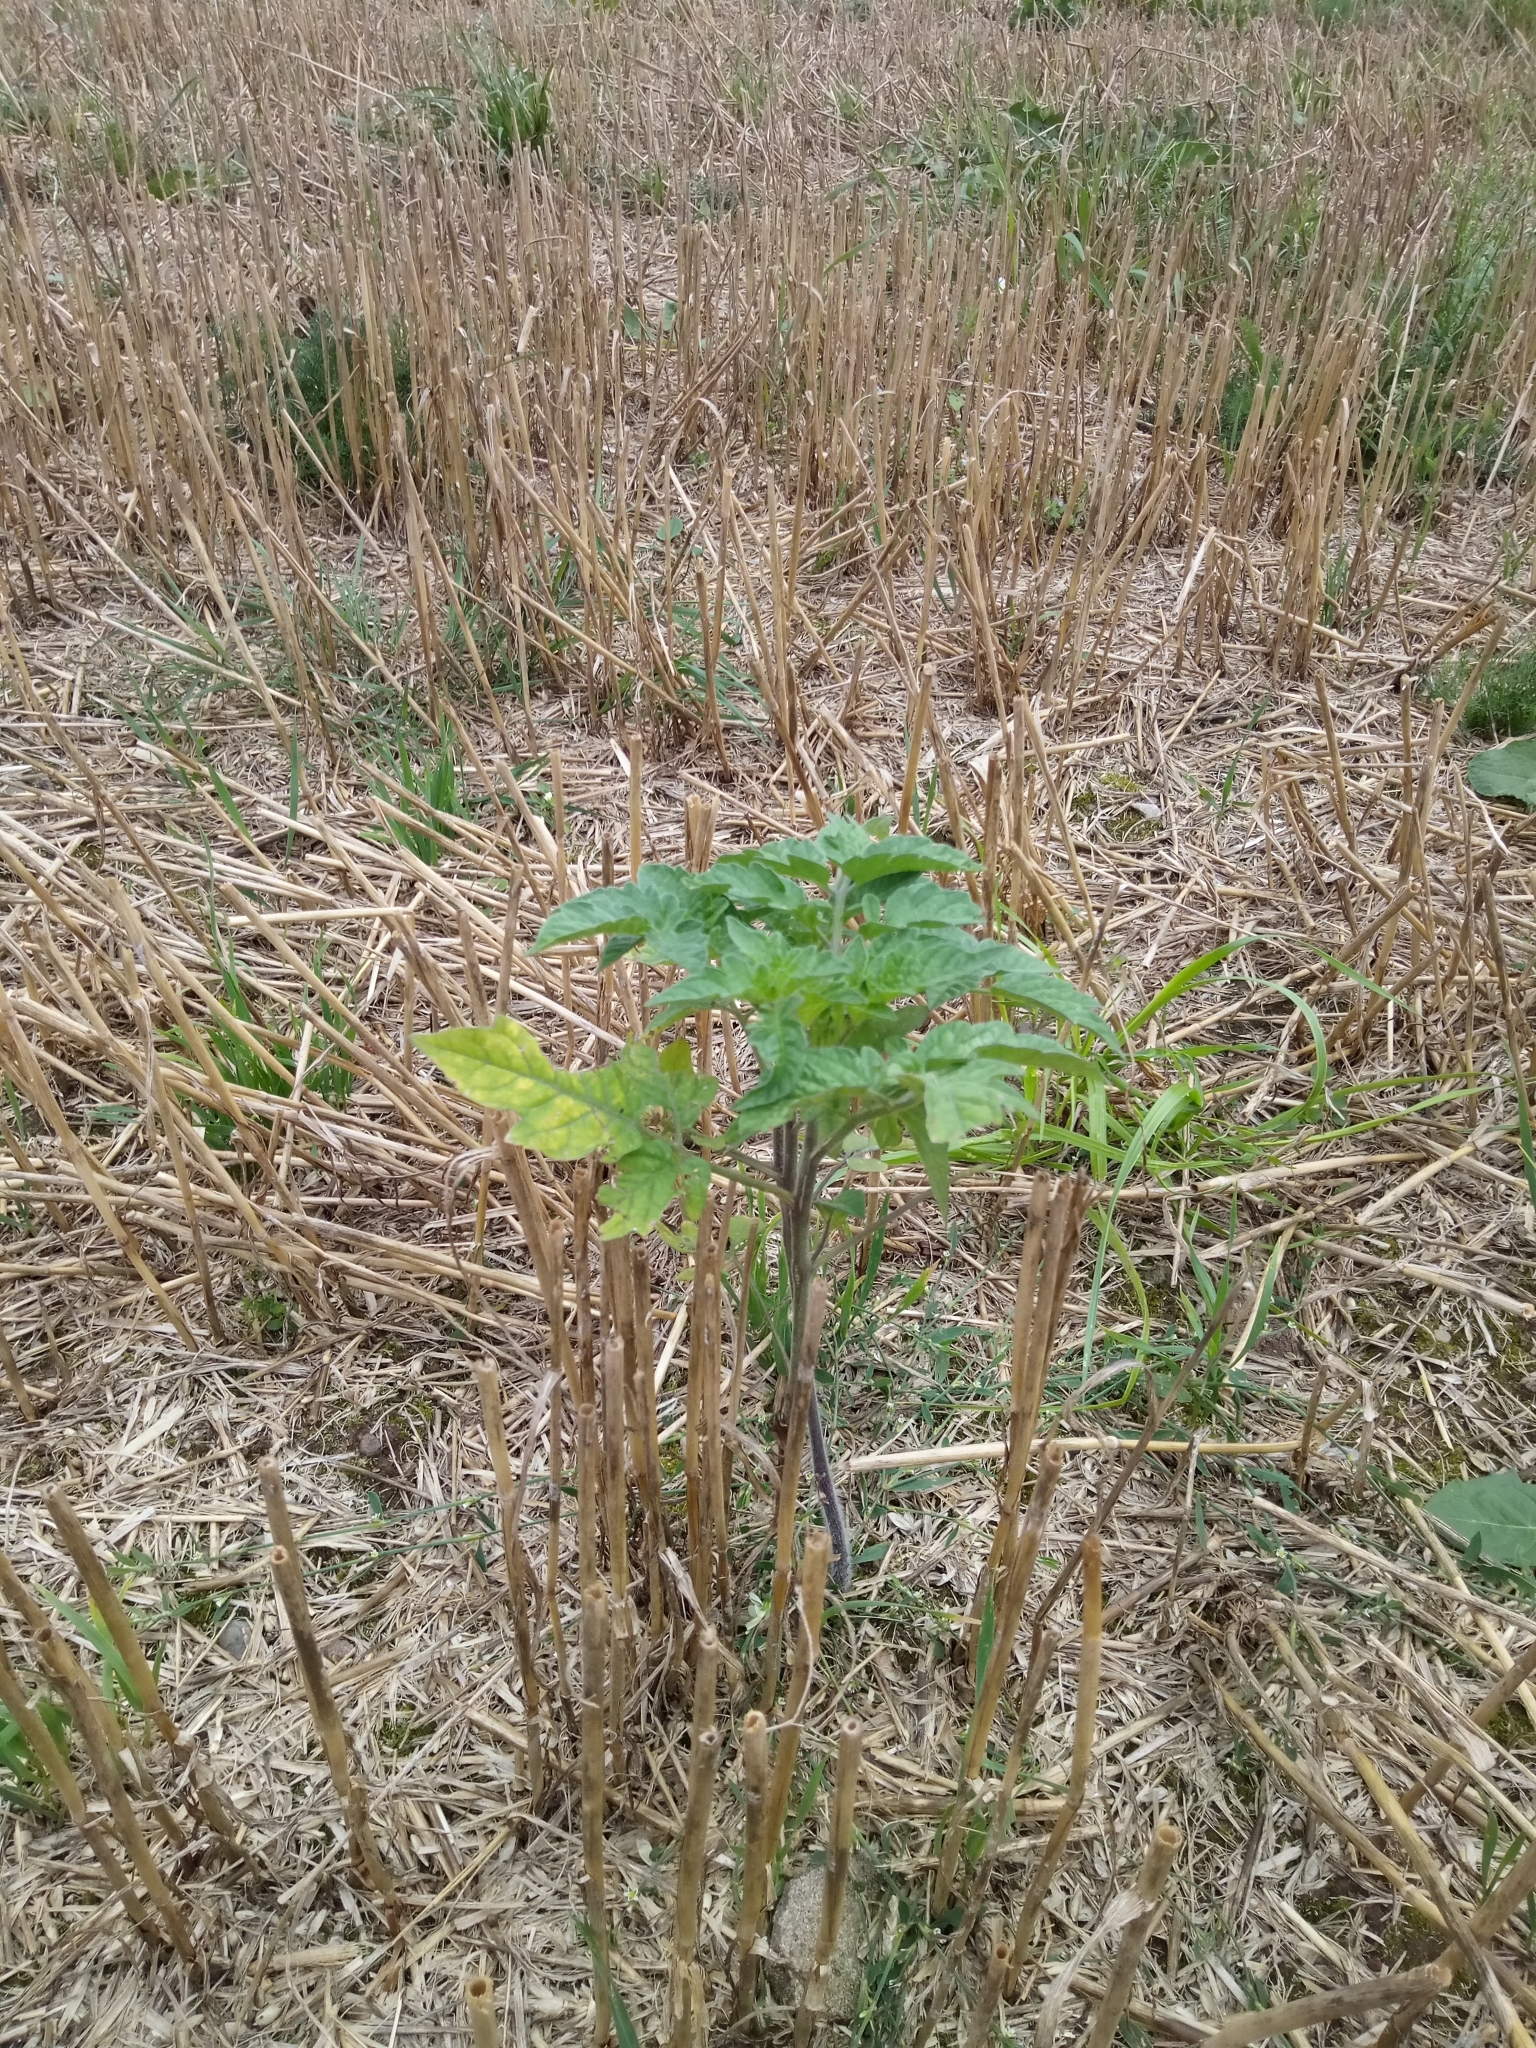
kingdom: Plantae
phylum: Tracheophyta
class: Magnoliopsida
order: Solanales
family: Solanaceae
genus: Solanum
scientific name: Solanum lycopersicum
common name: Garden tomato
